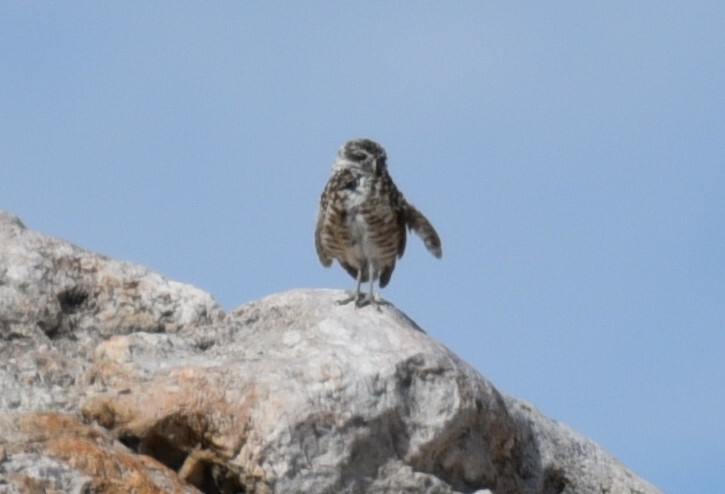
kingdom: Animalia
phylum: Chordata
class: Aves
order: Strigiformes
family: Strigidae
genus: Athene
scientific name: Athene cunicularia
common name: Burrowing owl
